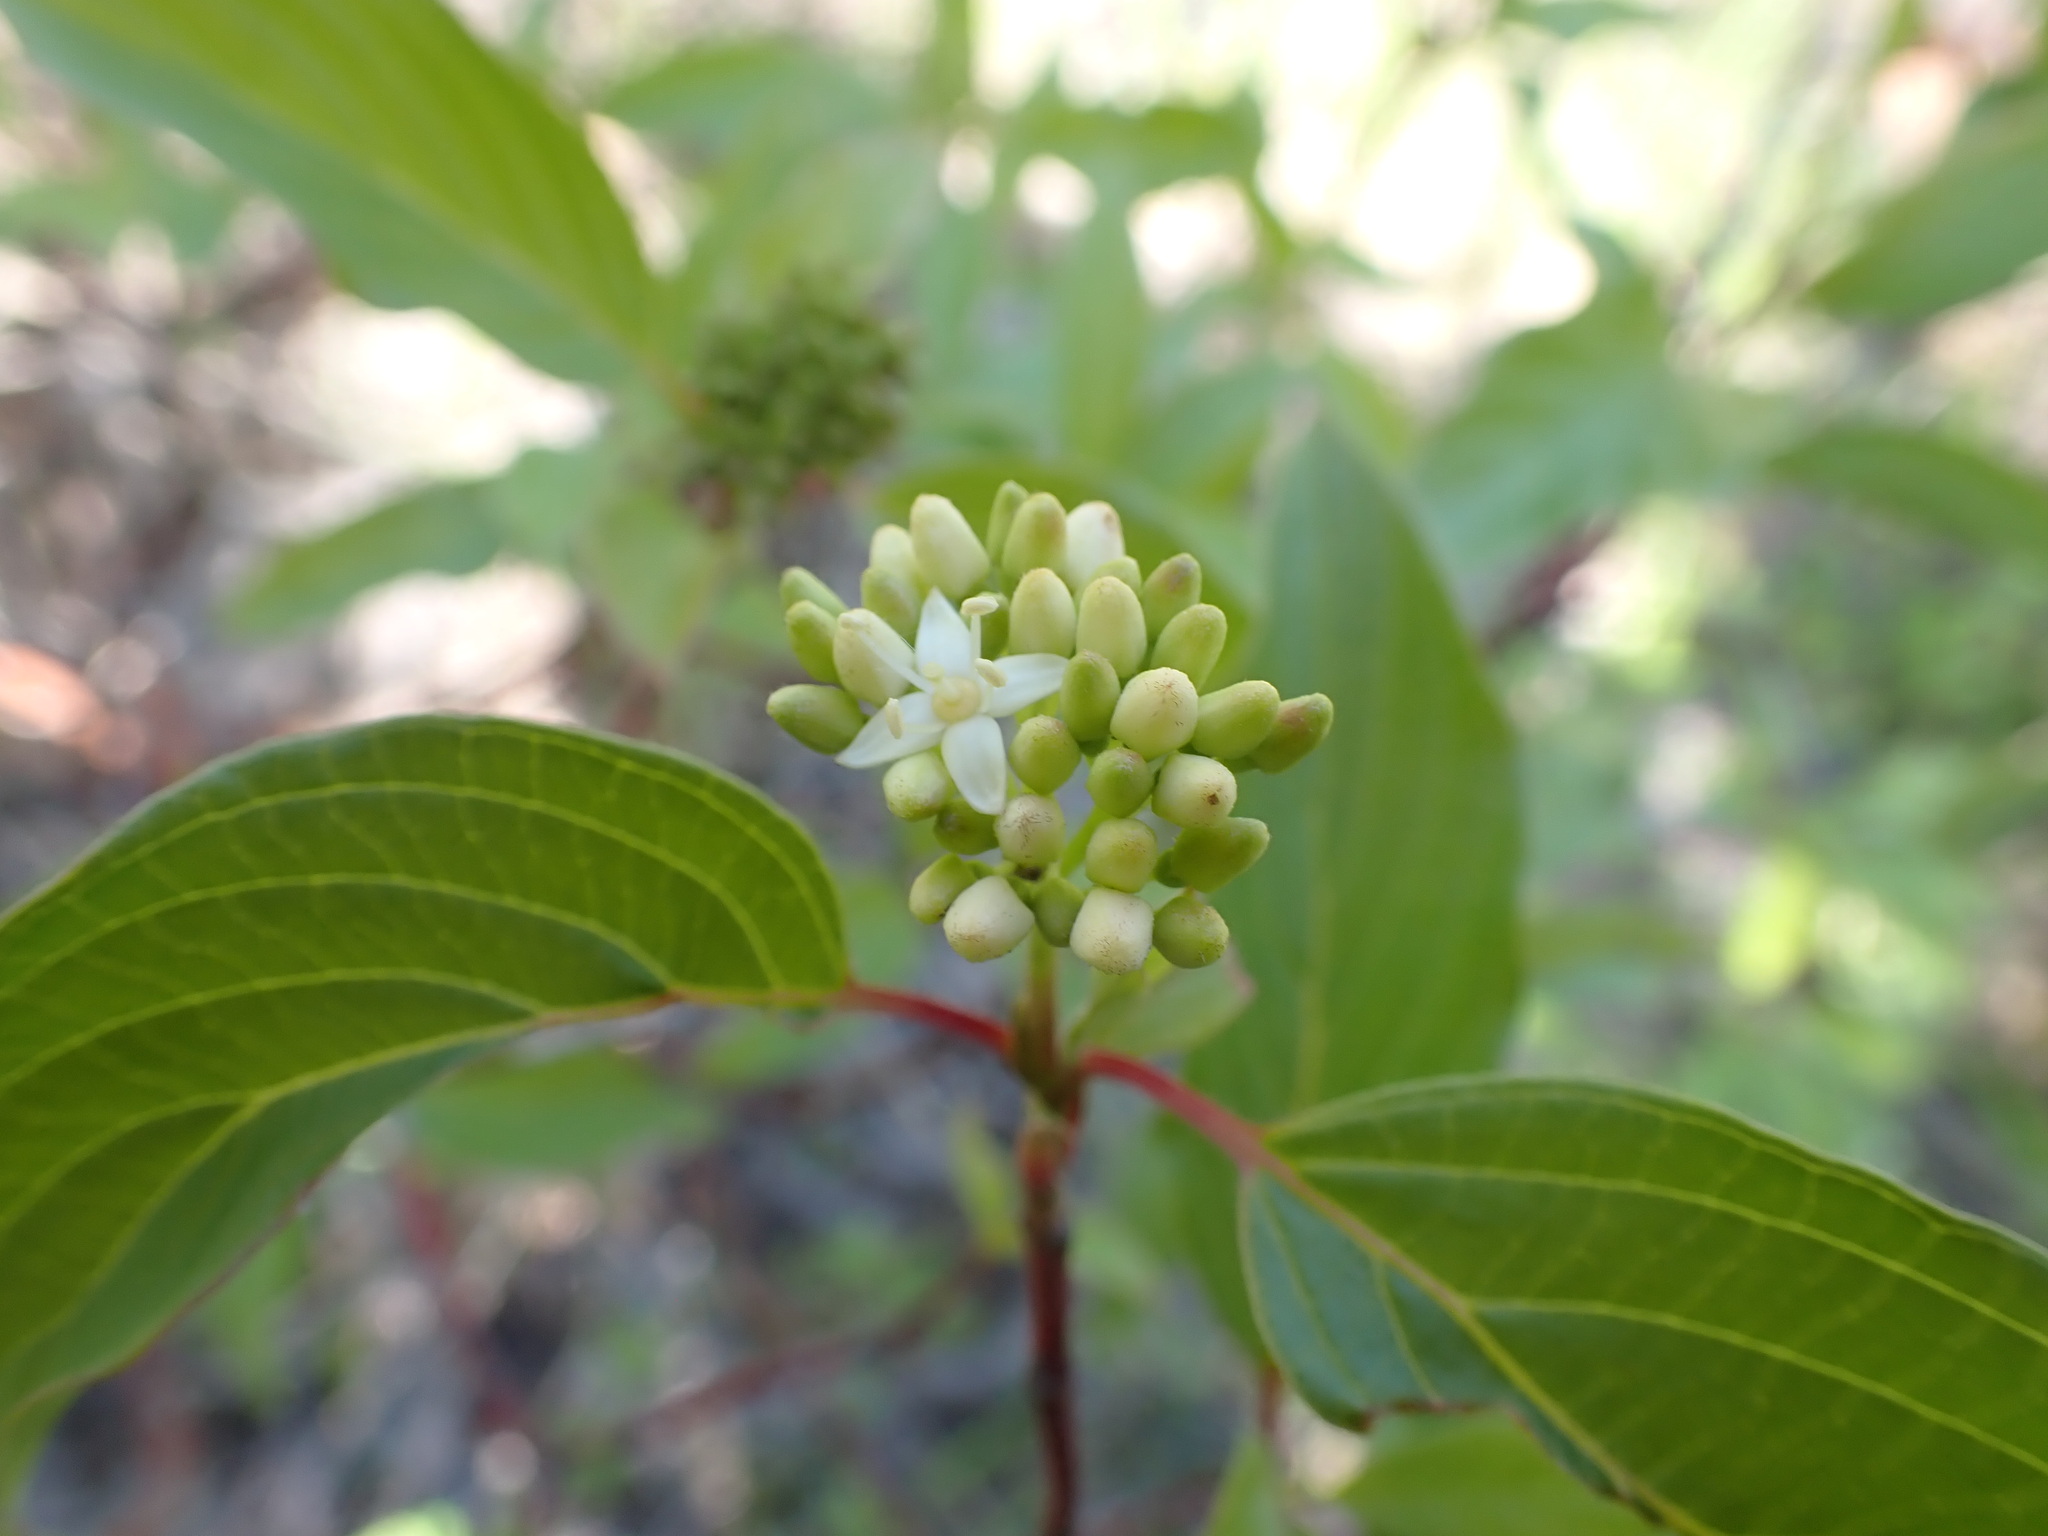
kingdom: Plantae
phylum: Tracheophyta
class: Magnoliopsida
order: Cornales
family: Cornaceae
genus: Cornus
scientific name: Cornus sericea
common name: Red-osier dogwood
